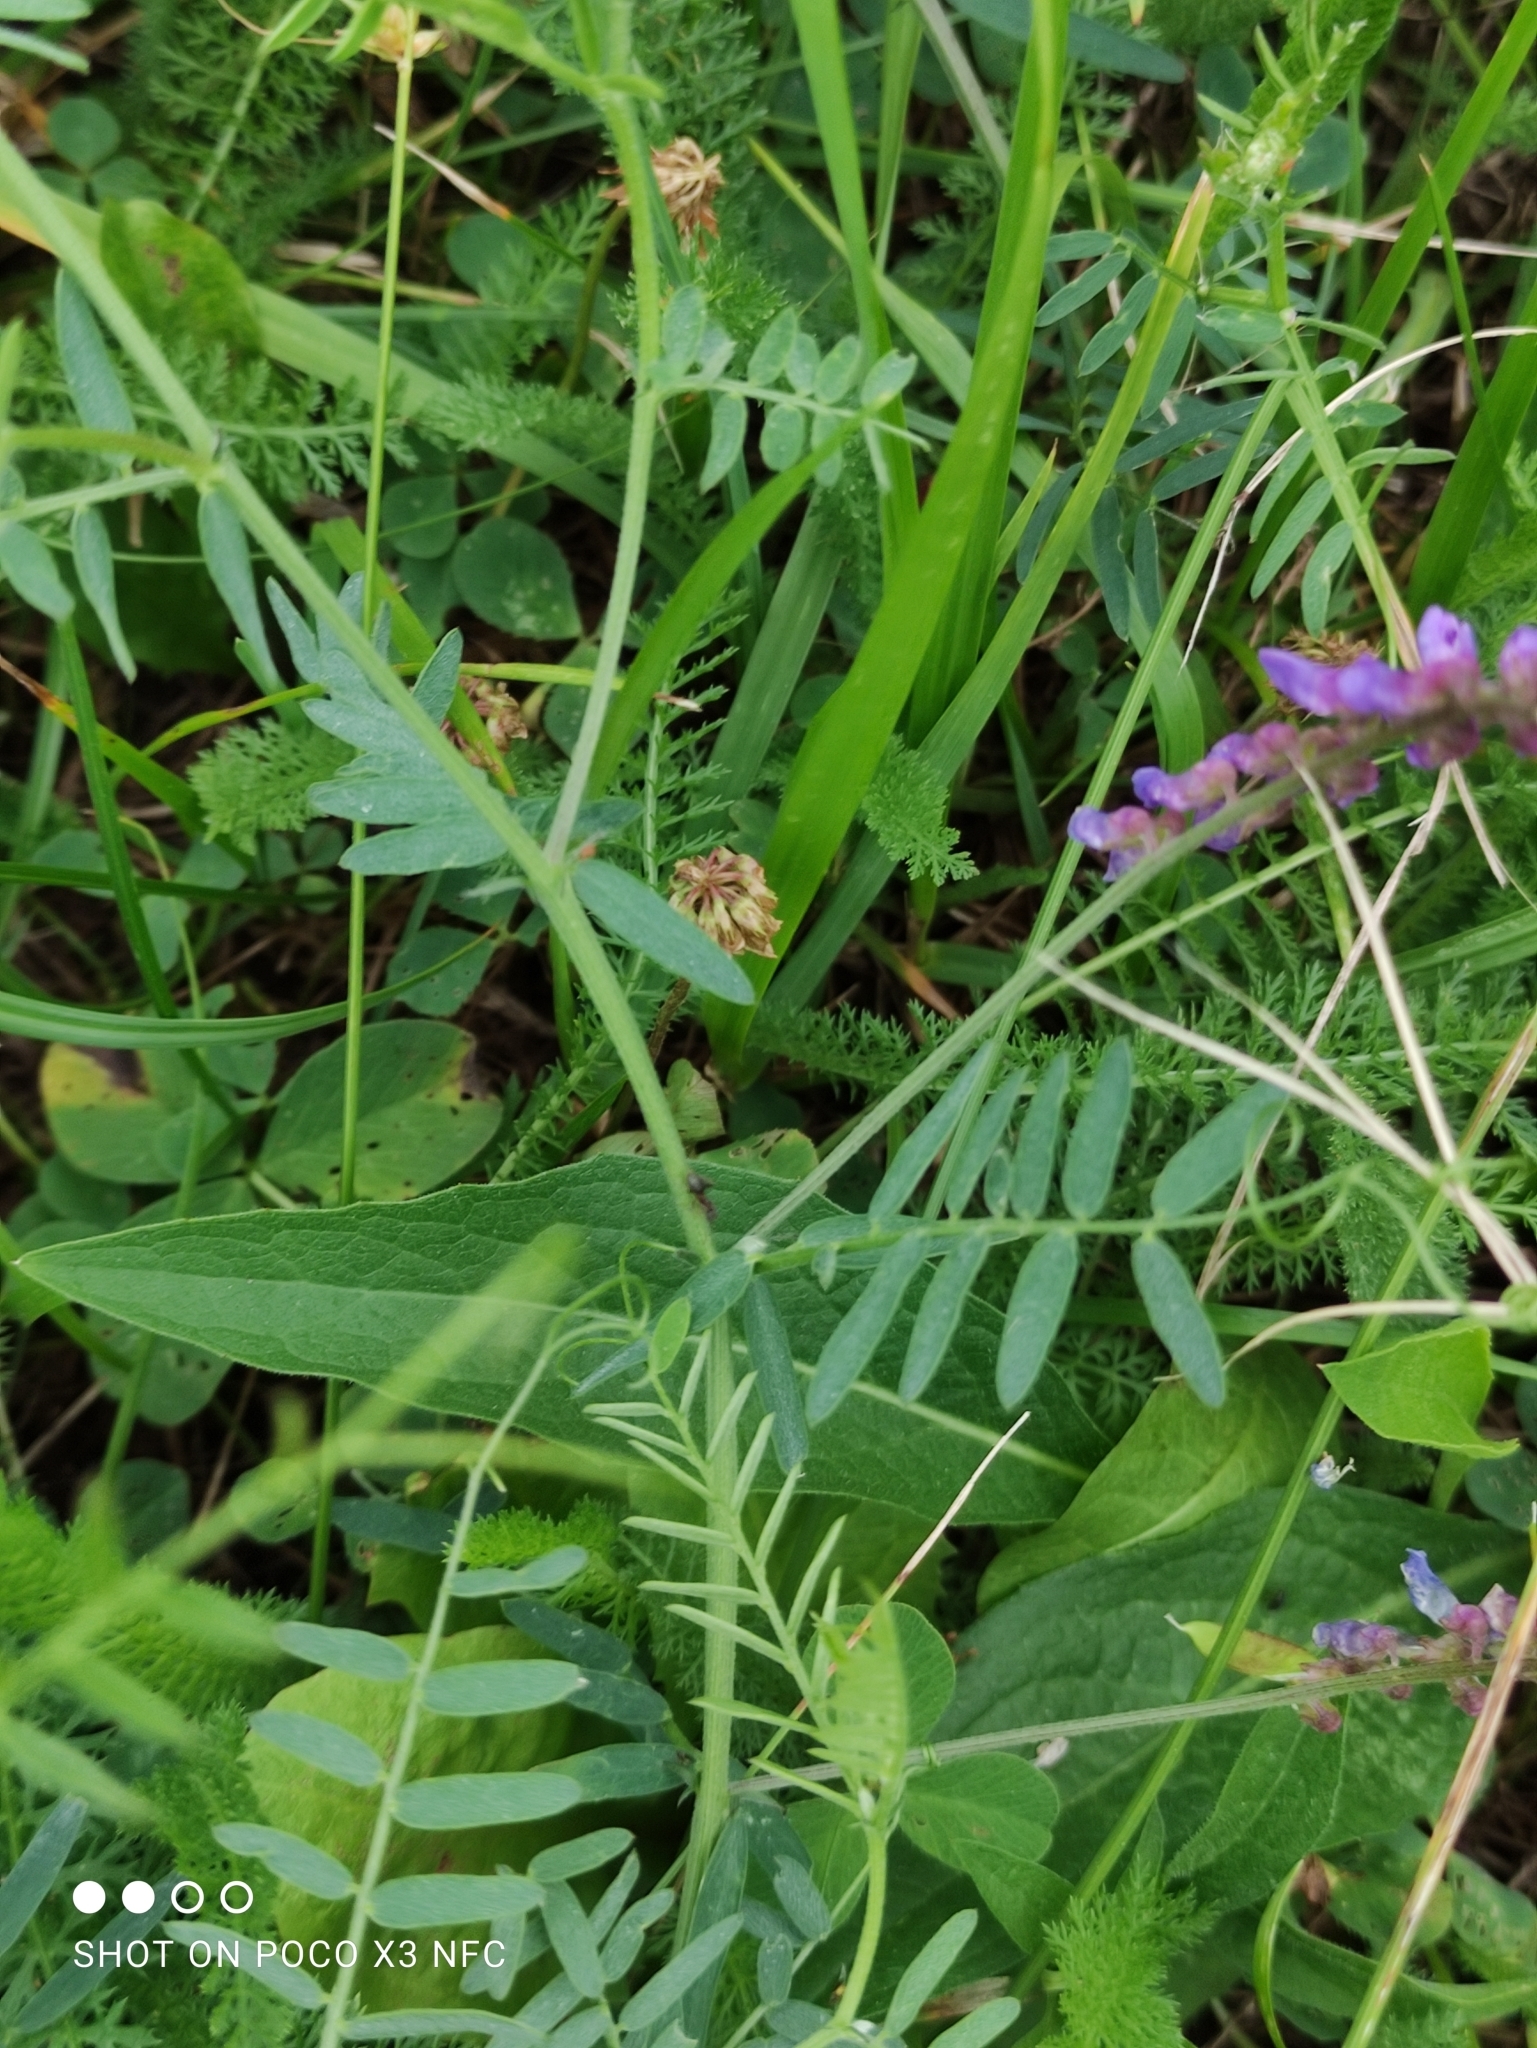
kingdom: Plantae
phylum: Tracheophyta
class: Magnoliopsida
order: Fabales
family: Fabaceae
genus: Vicia
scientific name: Vicia cracca
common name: Bird vetch
